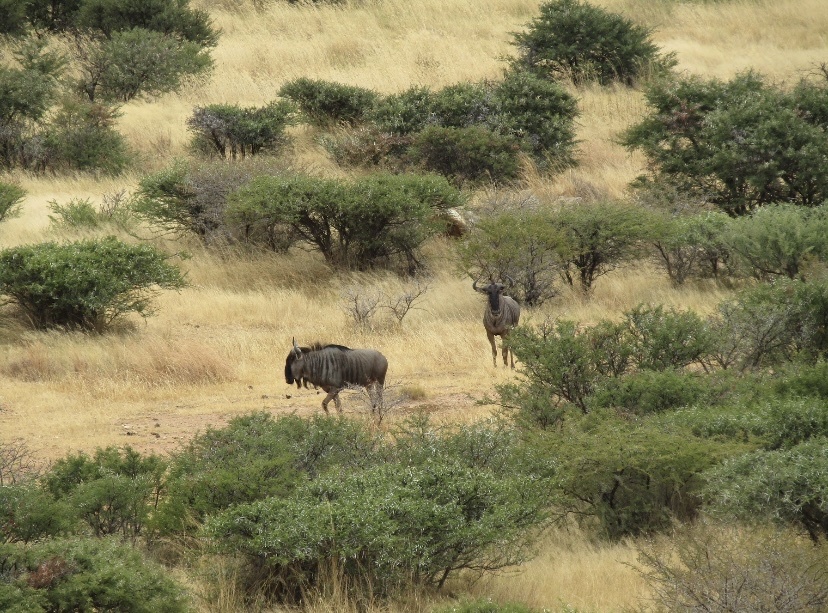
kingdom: Animalia
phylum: Chordata
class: Mammalia
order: Artiodactyla
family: Bovidae
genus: Connochaetes
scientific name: Connochaetes taurinus
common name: Blue wildebeest
